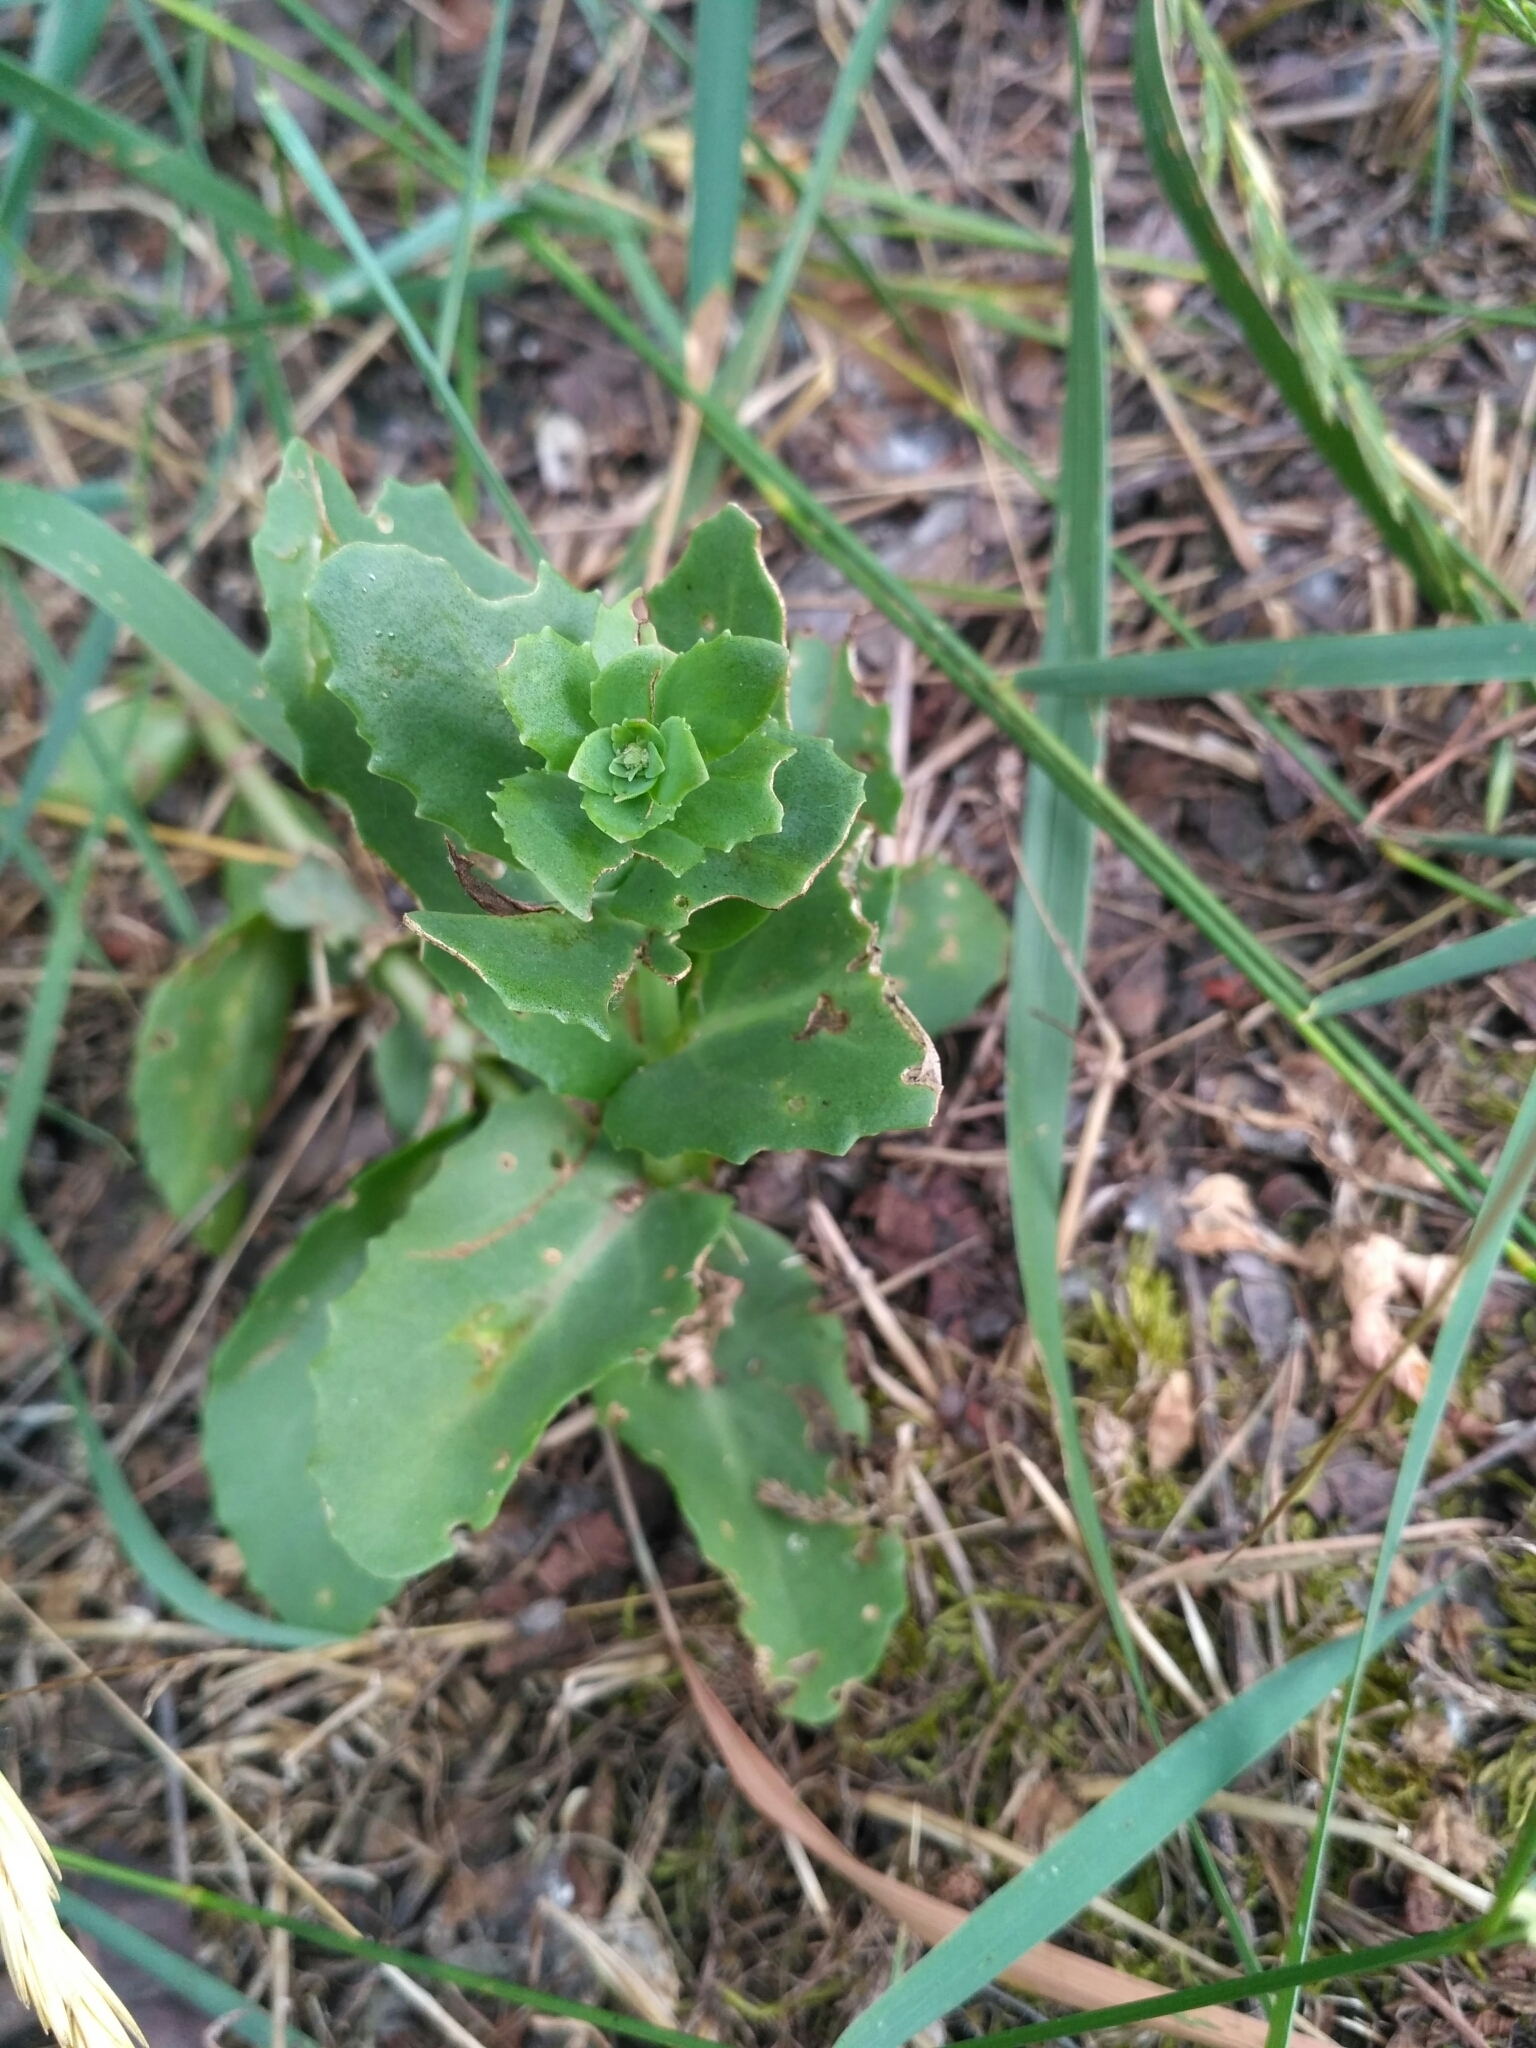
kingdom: Plantae
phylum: Tracheophyta
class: Magnoliopsida
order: Saxifragales
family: Crassulaceae
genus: Hylotelephium
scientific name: Hylotelephium maximum
